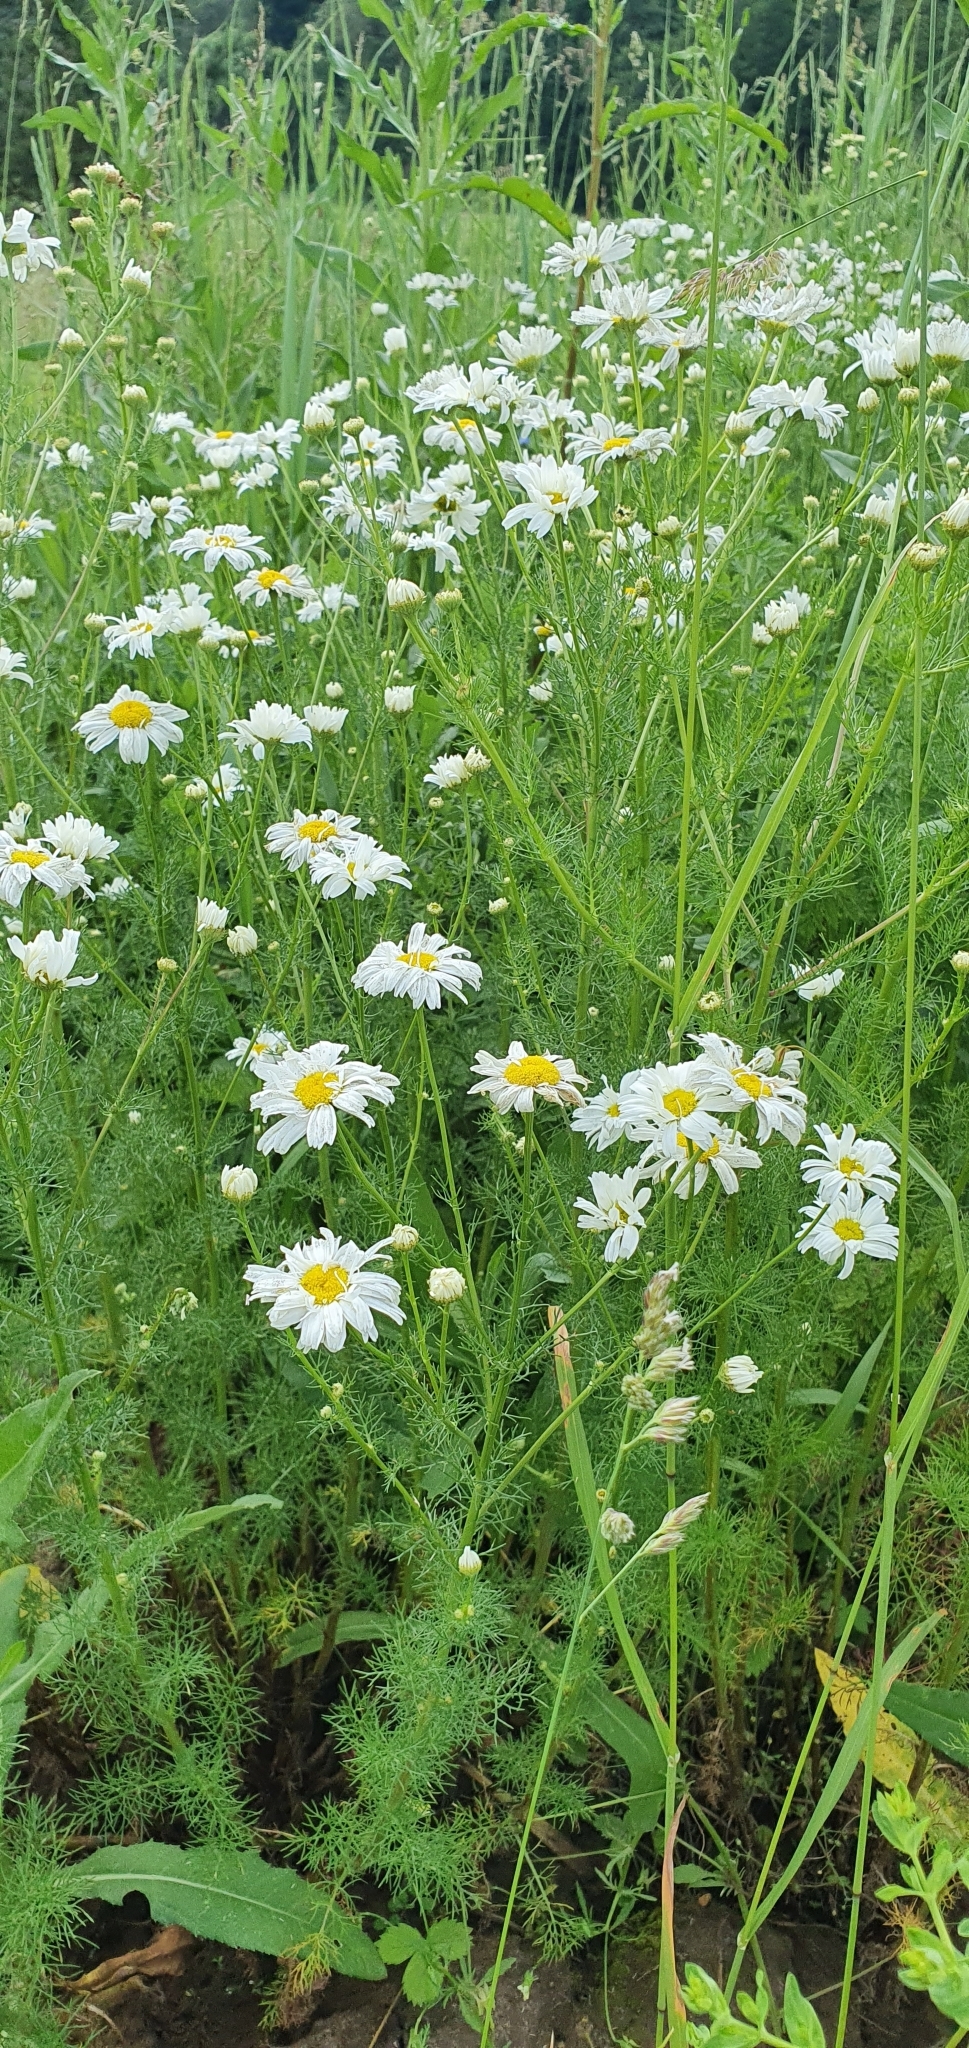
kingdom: Plantae
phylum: Tracheophyta
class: Magnoliopsida
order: Asterales
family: Asteraceae
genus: Tripleurospermum
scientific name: Tripleurospermum inodorum
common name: Scentless mayweed
